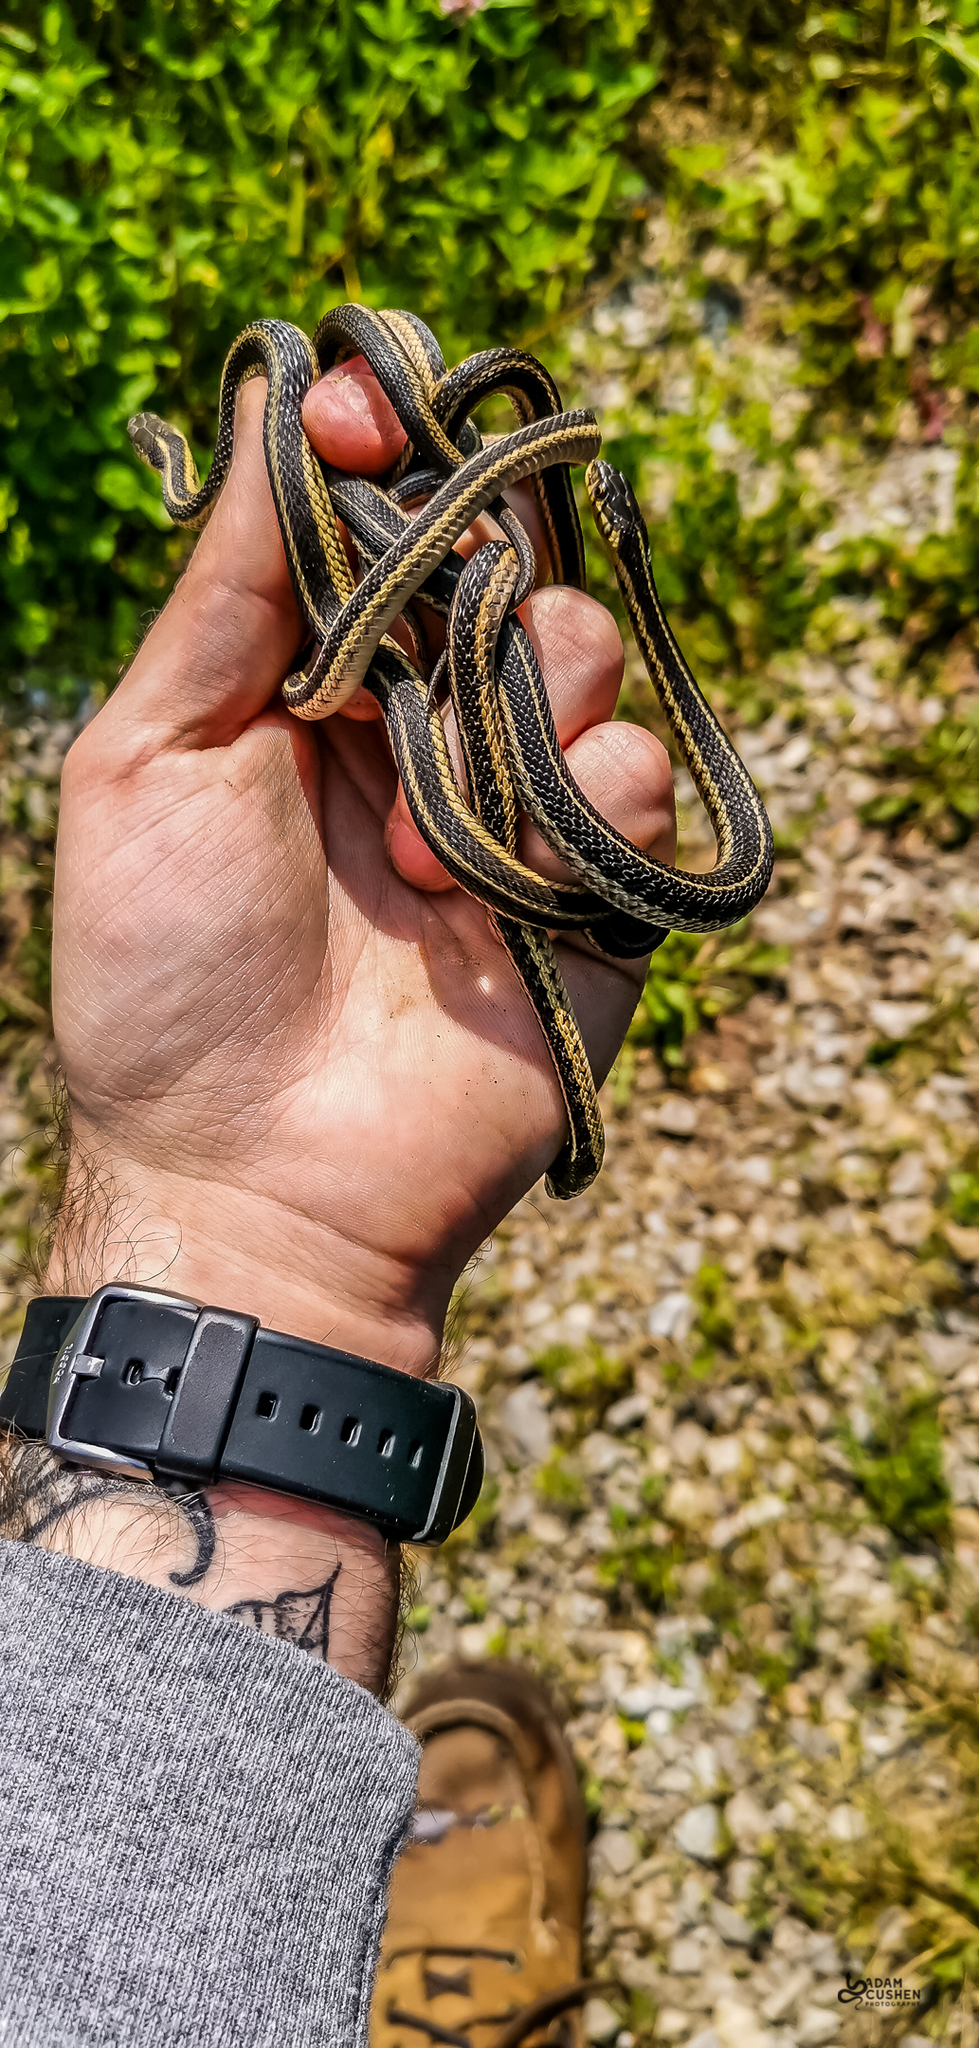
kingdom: Animalia
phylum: Chordata
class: Squamata
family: Colubridae
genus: Thamnophis
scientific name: Thamnophis sirtalis
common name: Common garter snake
